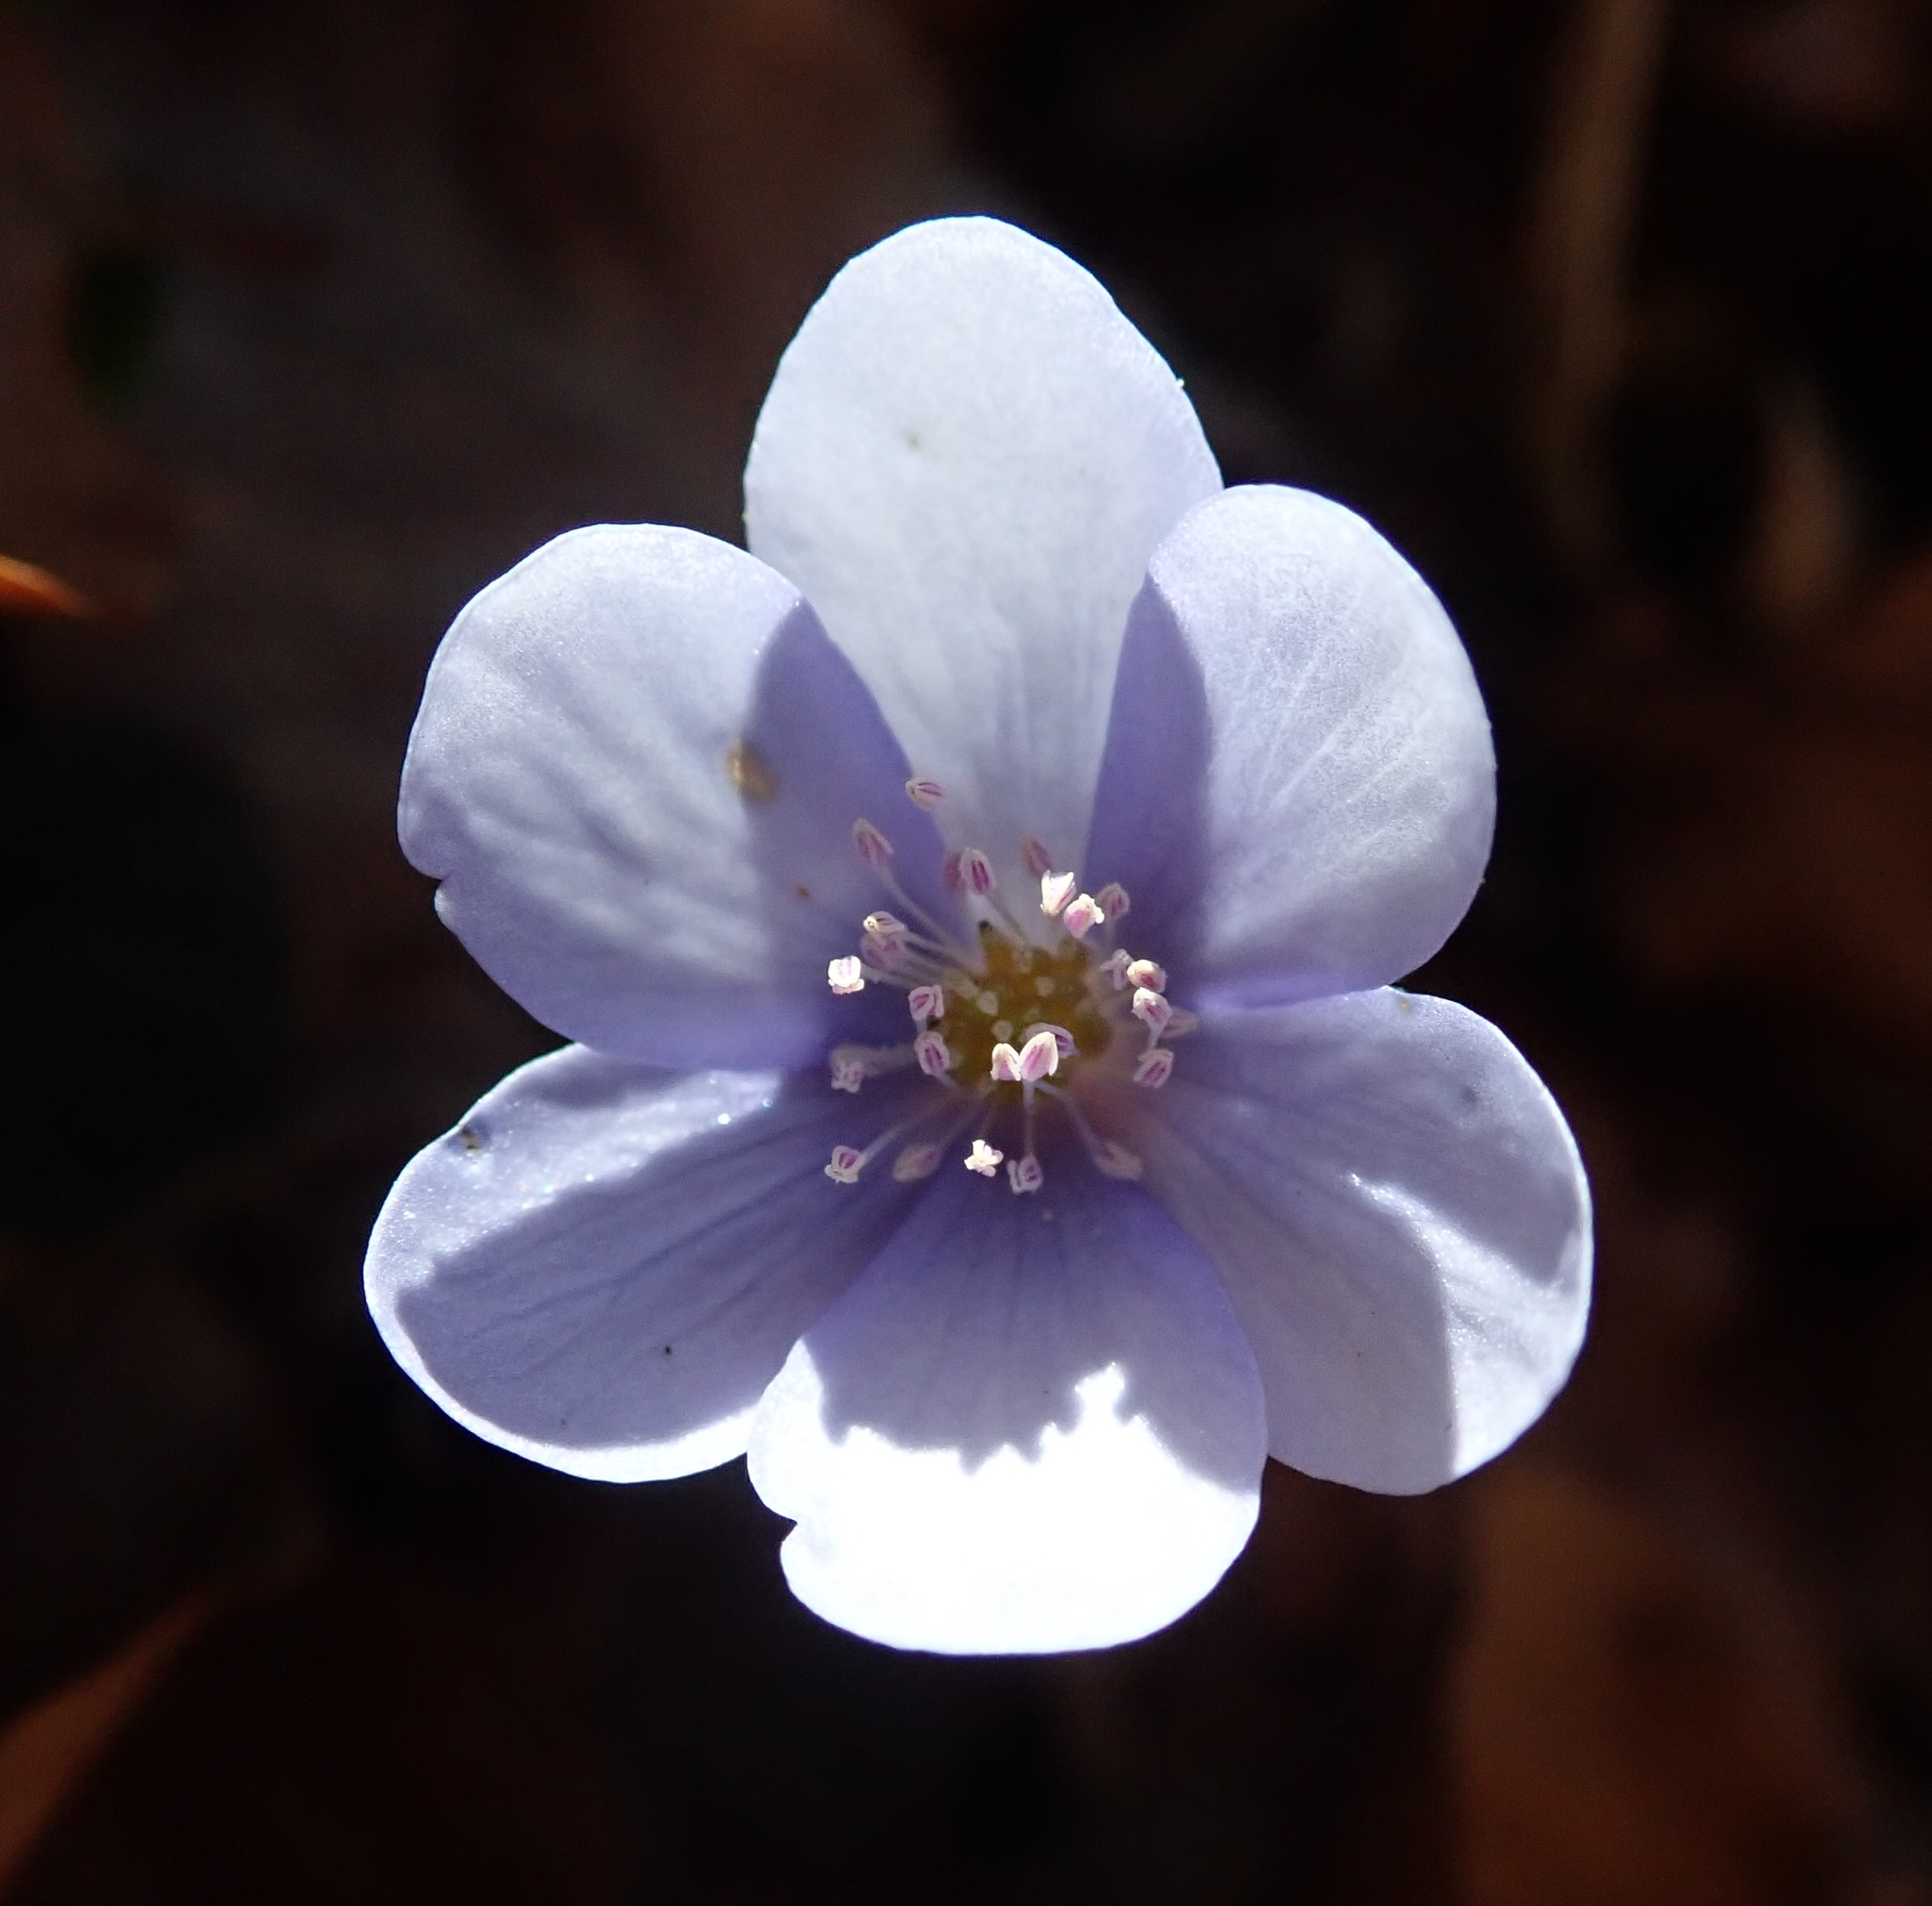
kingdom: Plantae
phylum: Tracheophyta
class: Magnoliopsida
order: Ranunculales
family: Ranunculaceae
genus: Hepatica
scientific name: Hepatica nobilis
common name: Liverleaf
